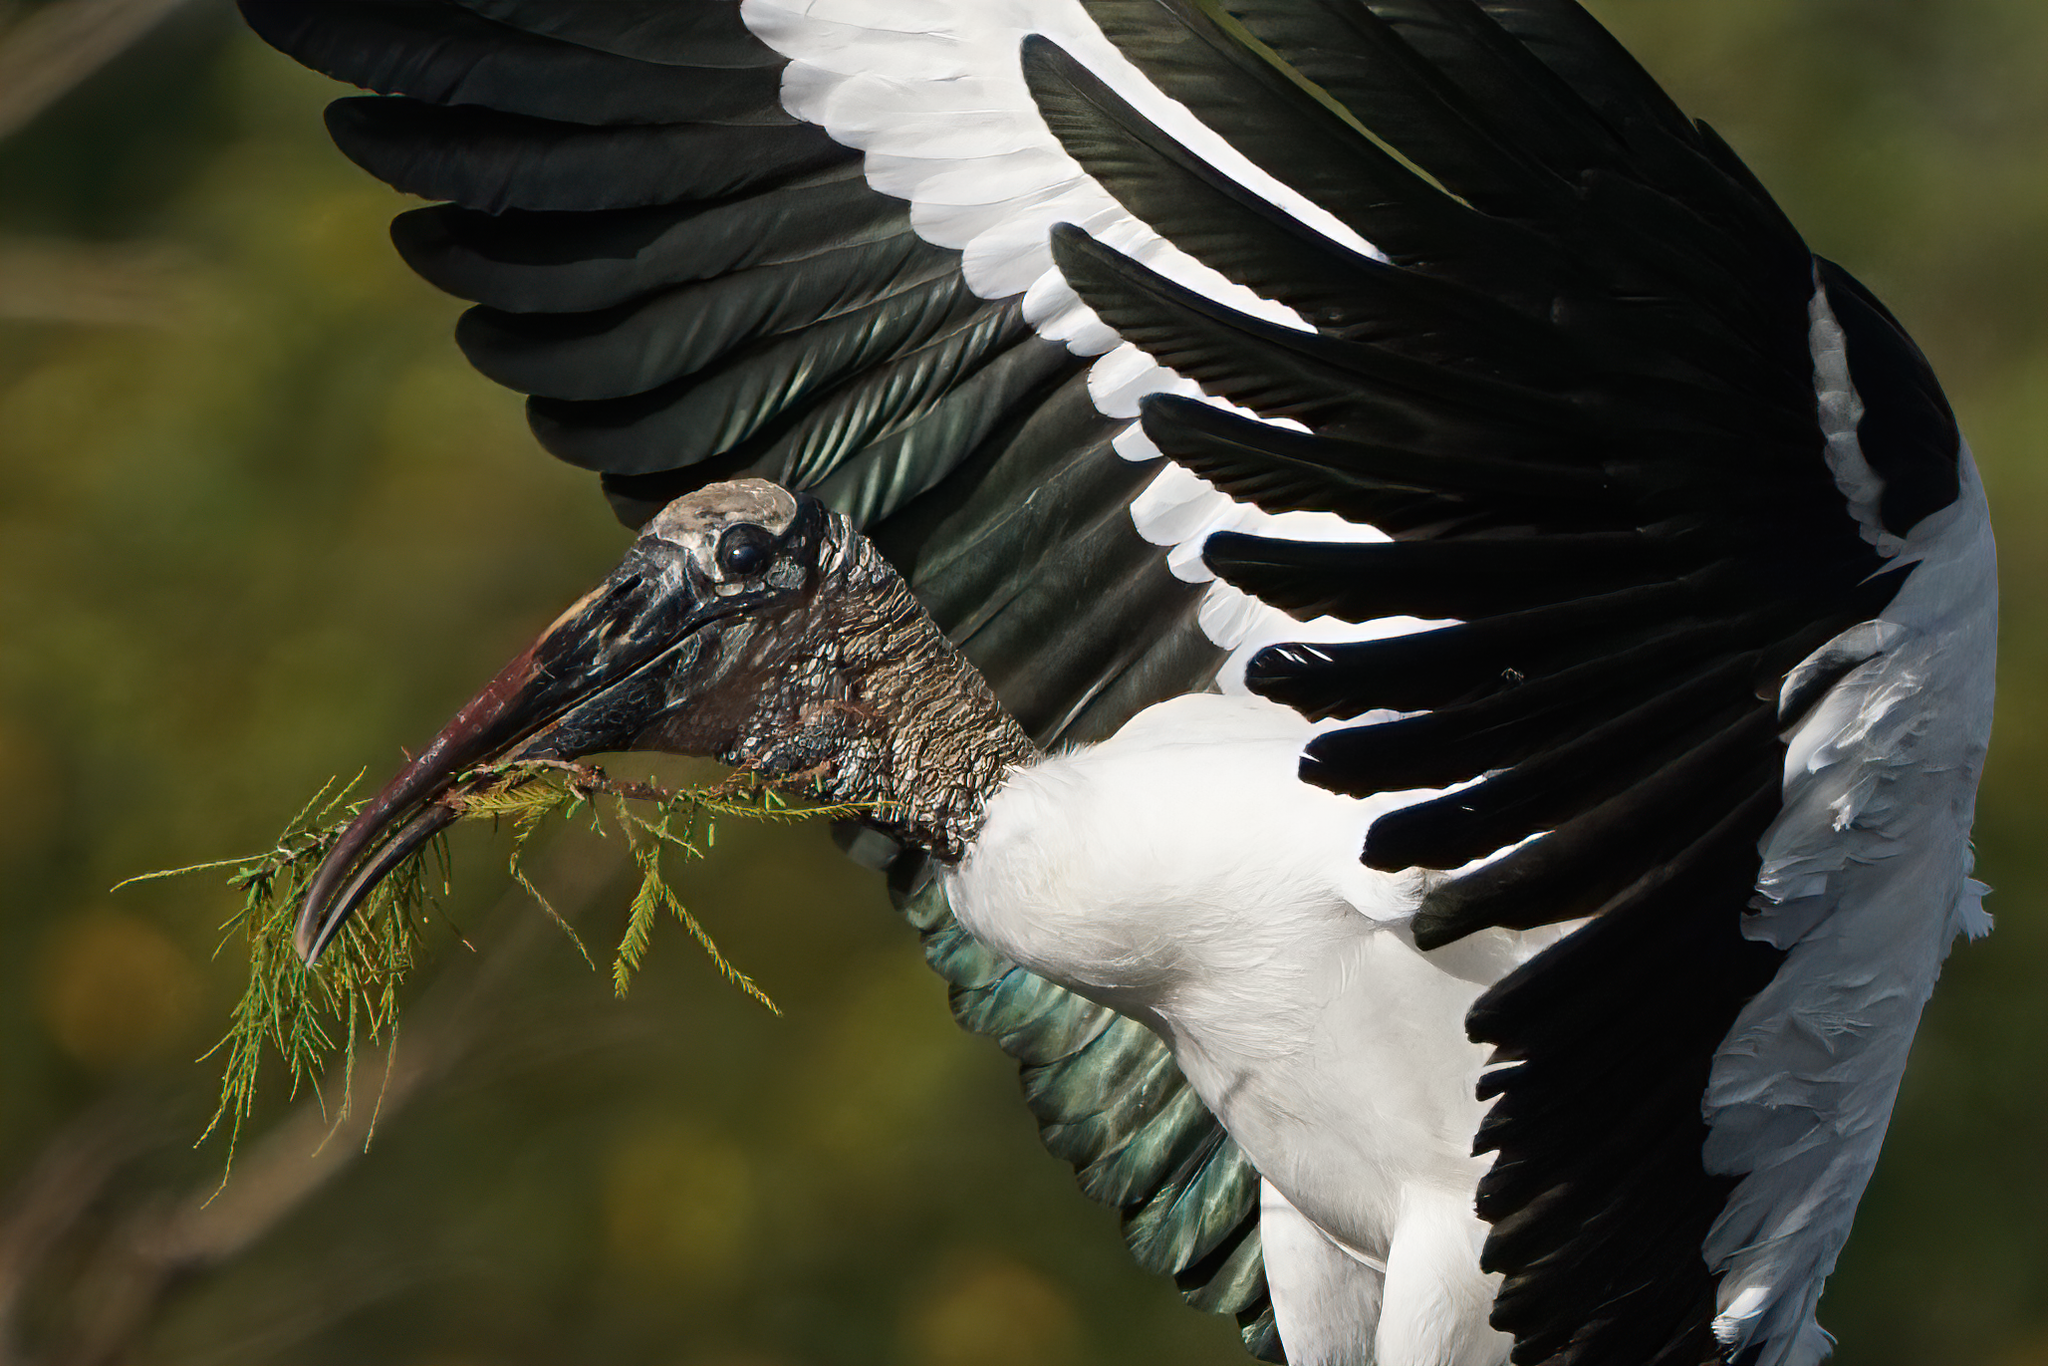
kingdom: Animalia
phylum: Chordata
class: Aves
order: Ciconiiformes
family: Ciconiidae
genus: Mycteria
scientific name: Mycteria americana
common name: Wood stork
